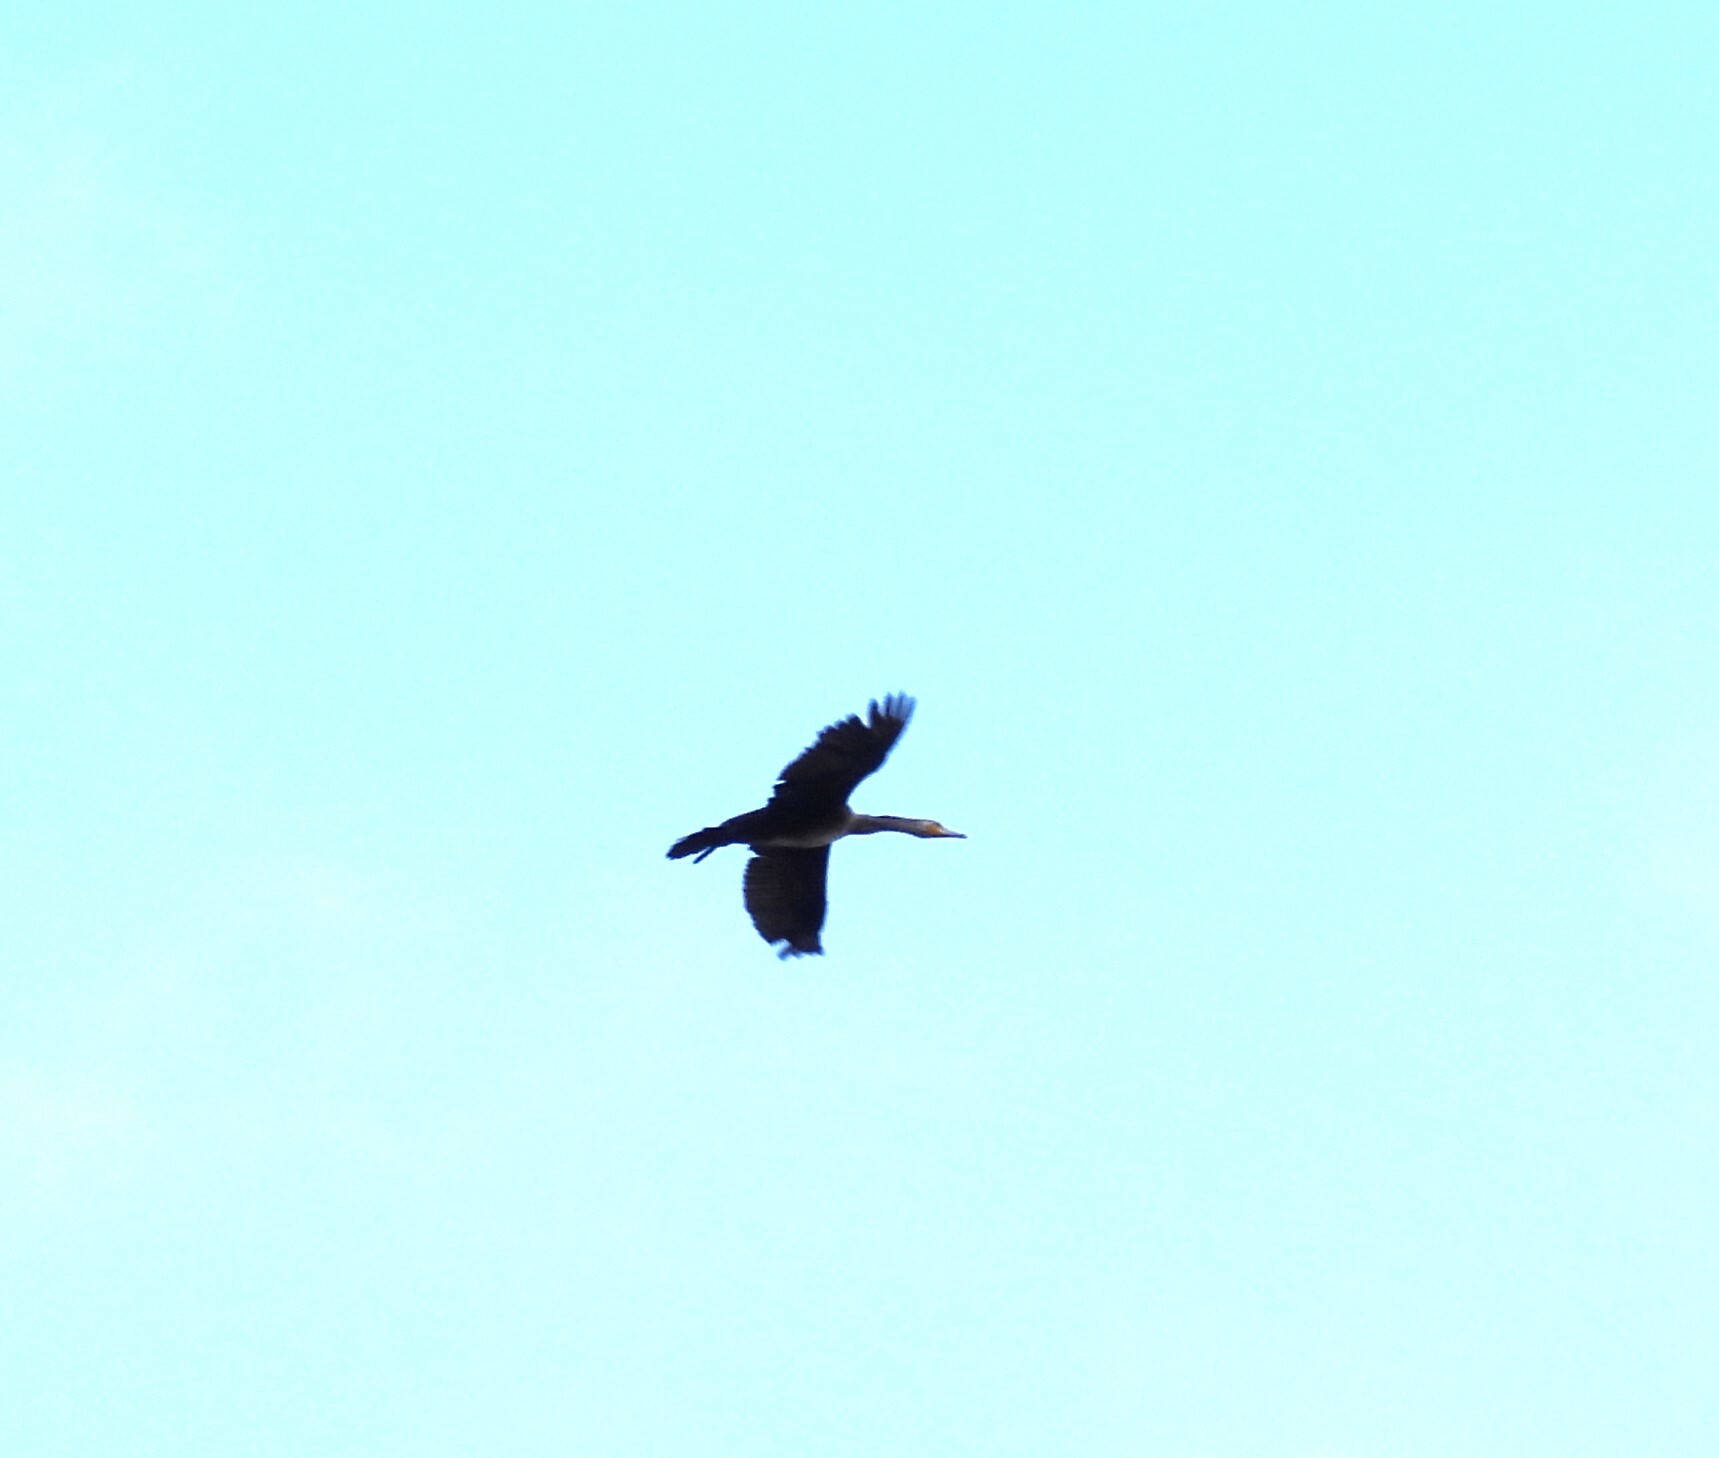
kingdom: Animalia
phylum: Chordata
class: Aves
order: Suliformes
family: Phalacrocoracidae
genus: Phalacrocorax
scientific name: Phalacrocorax carbo
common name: Great cormorant
